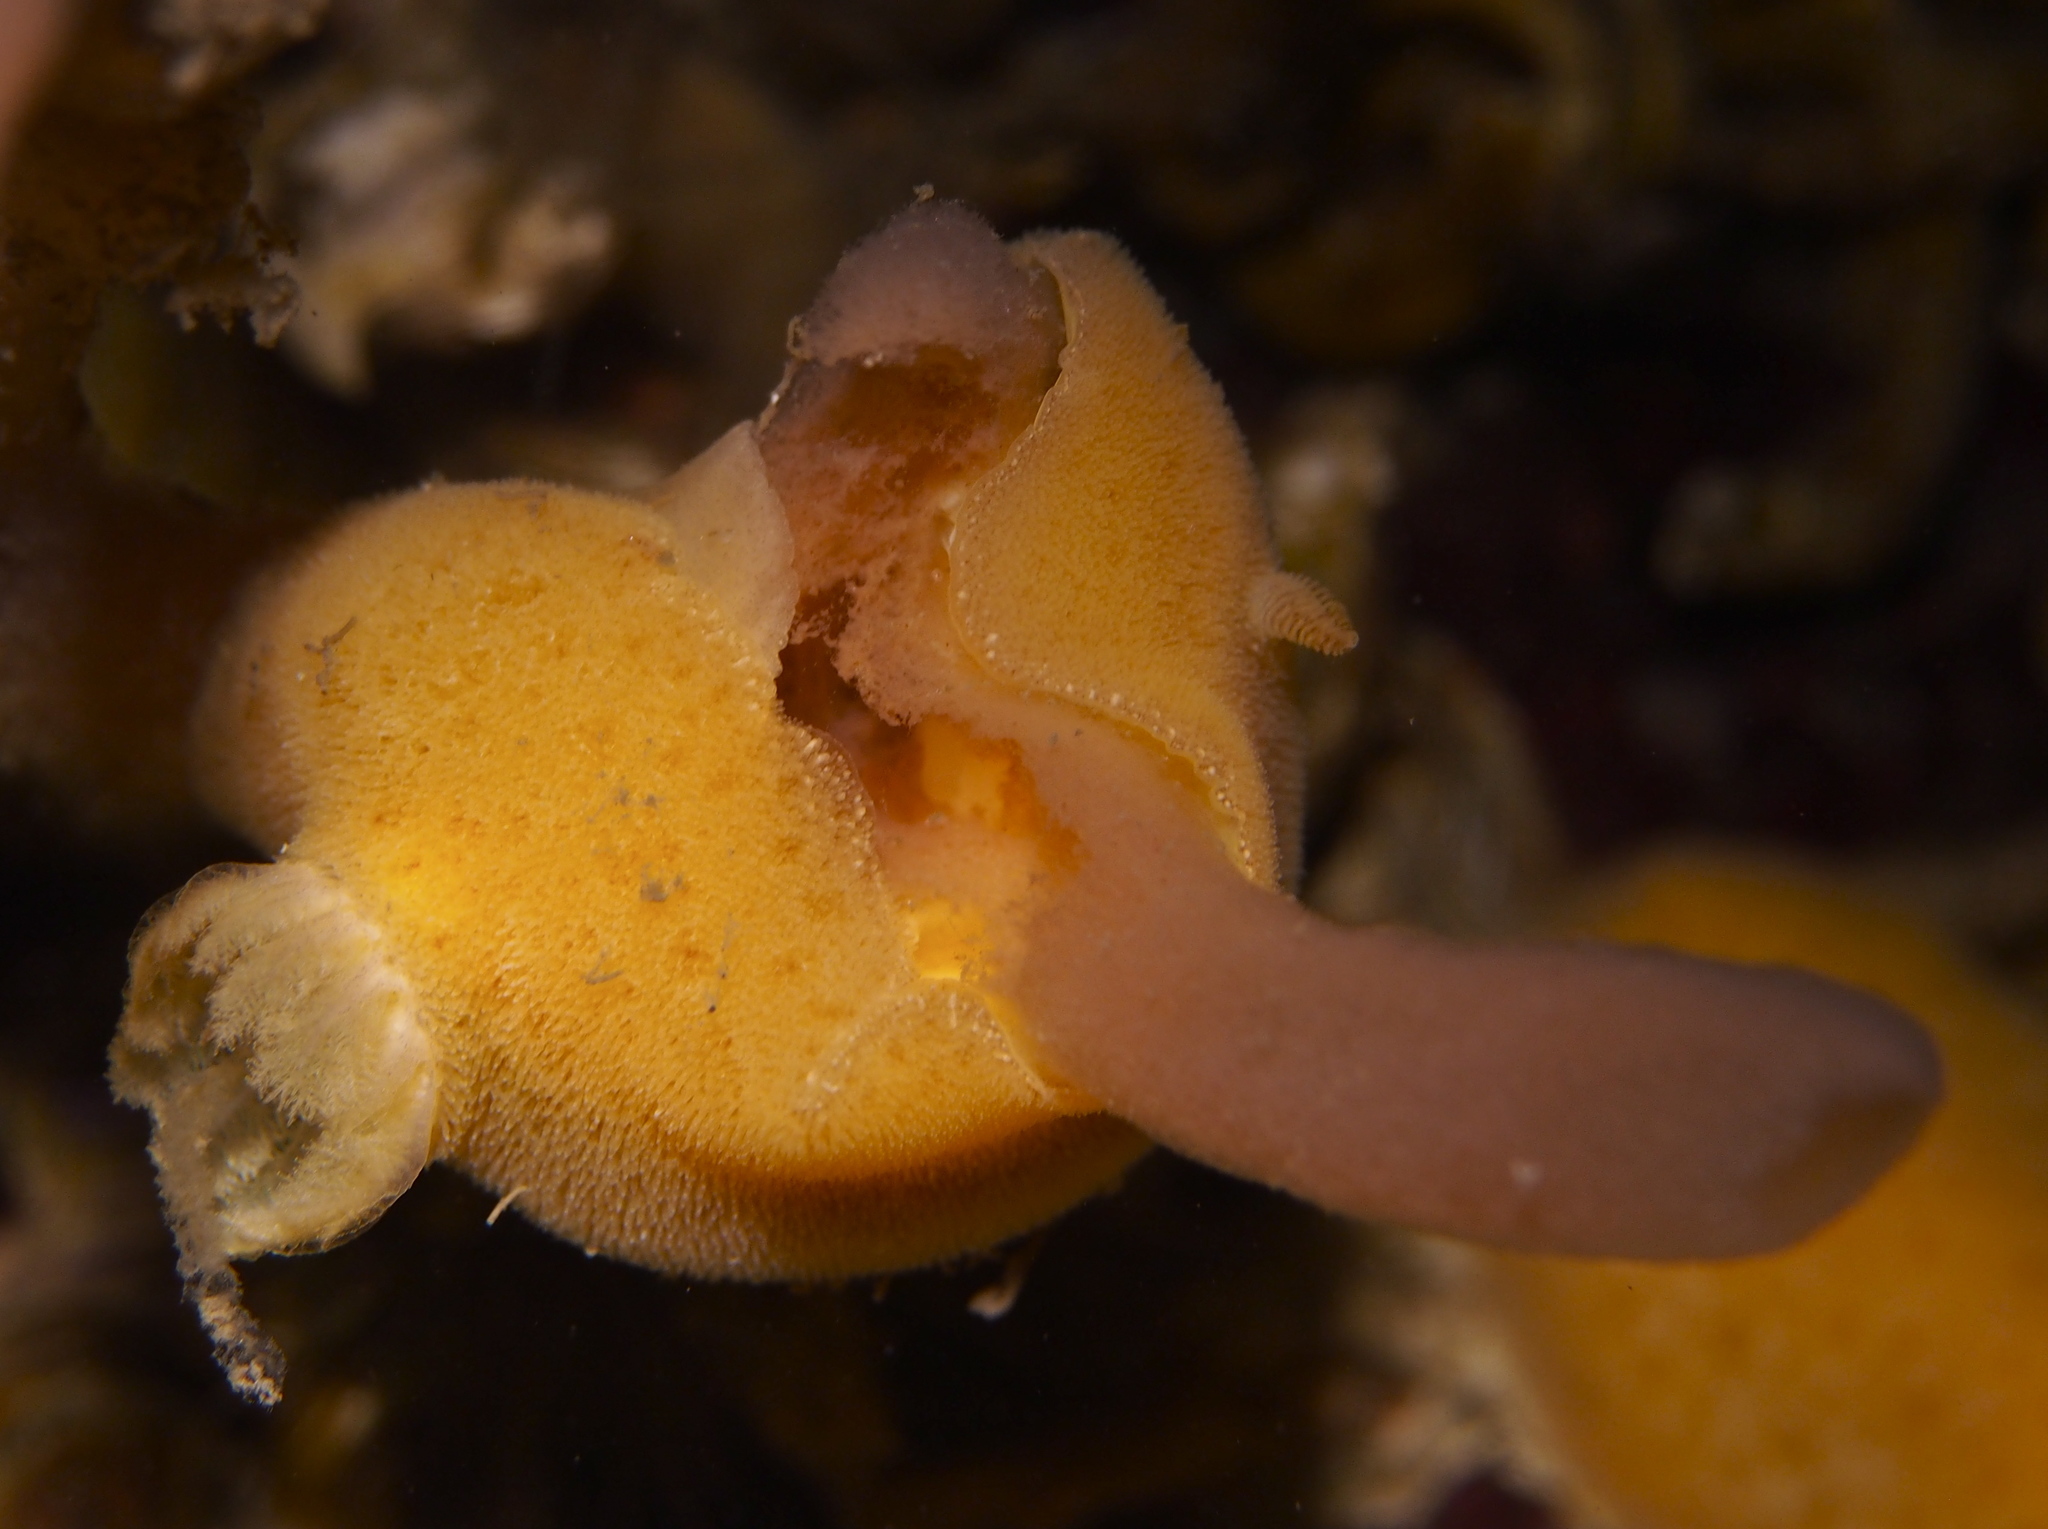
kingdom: Animalia
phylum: Mollusca
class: Gastropoda
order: Nudibranchia
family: Discodorididae
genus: Jorunna
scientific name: Jorunna tomentosa
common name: Grey sea slug
